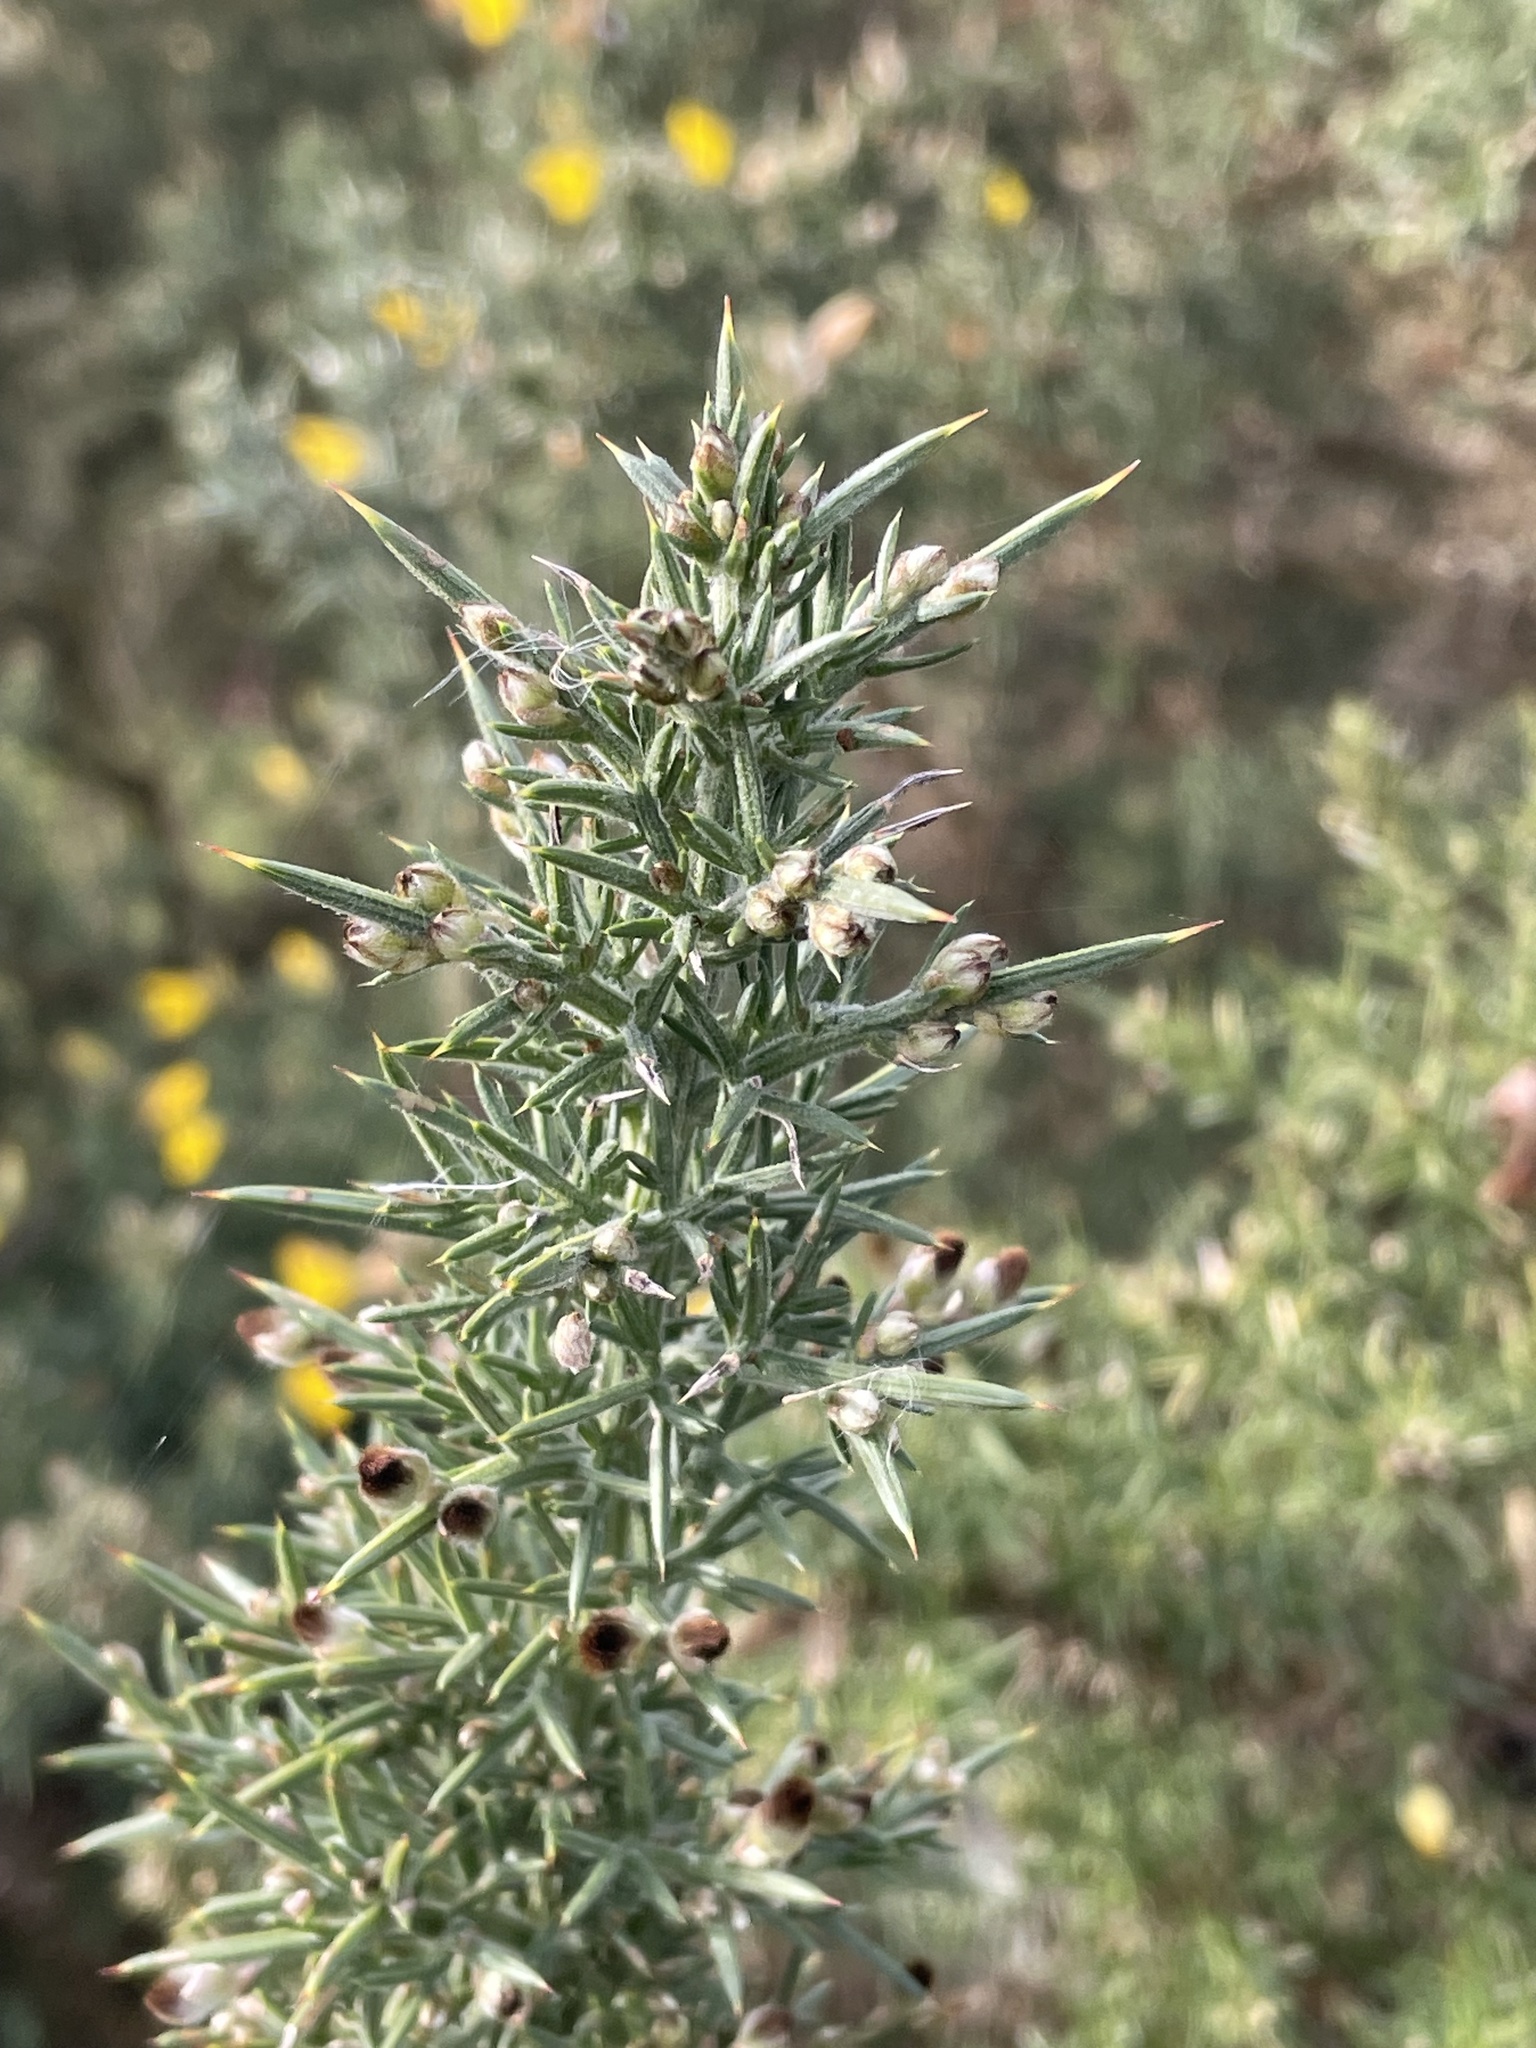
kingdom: Plantae
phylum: Tracheophyta
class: Magnoliopsida
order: Fabales
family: Fabaceae
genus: Ulex
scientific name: Ulex europaeus
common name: Common gorse
